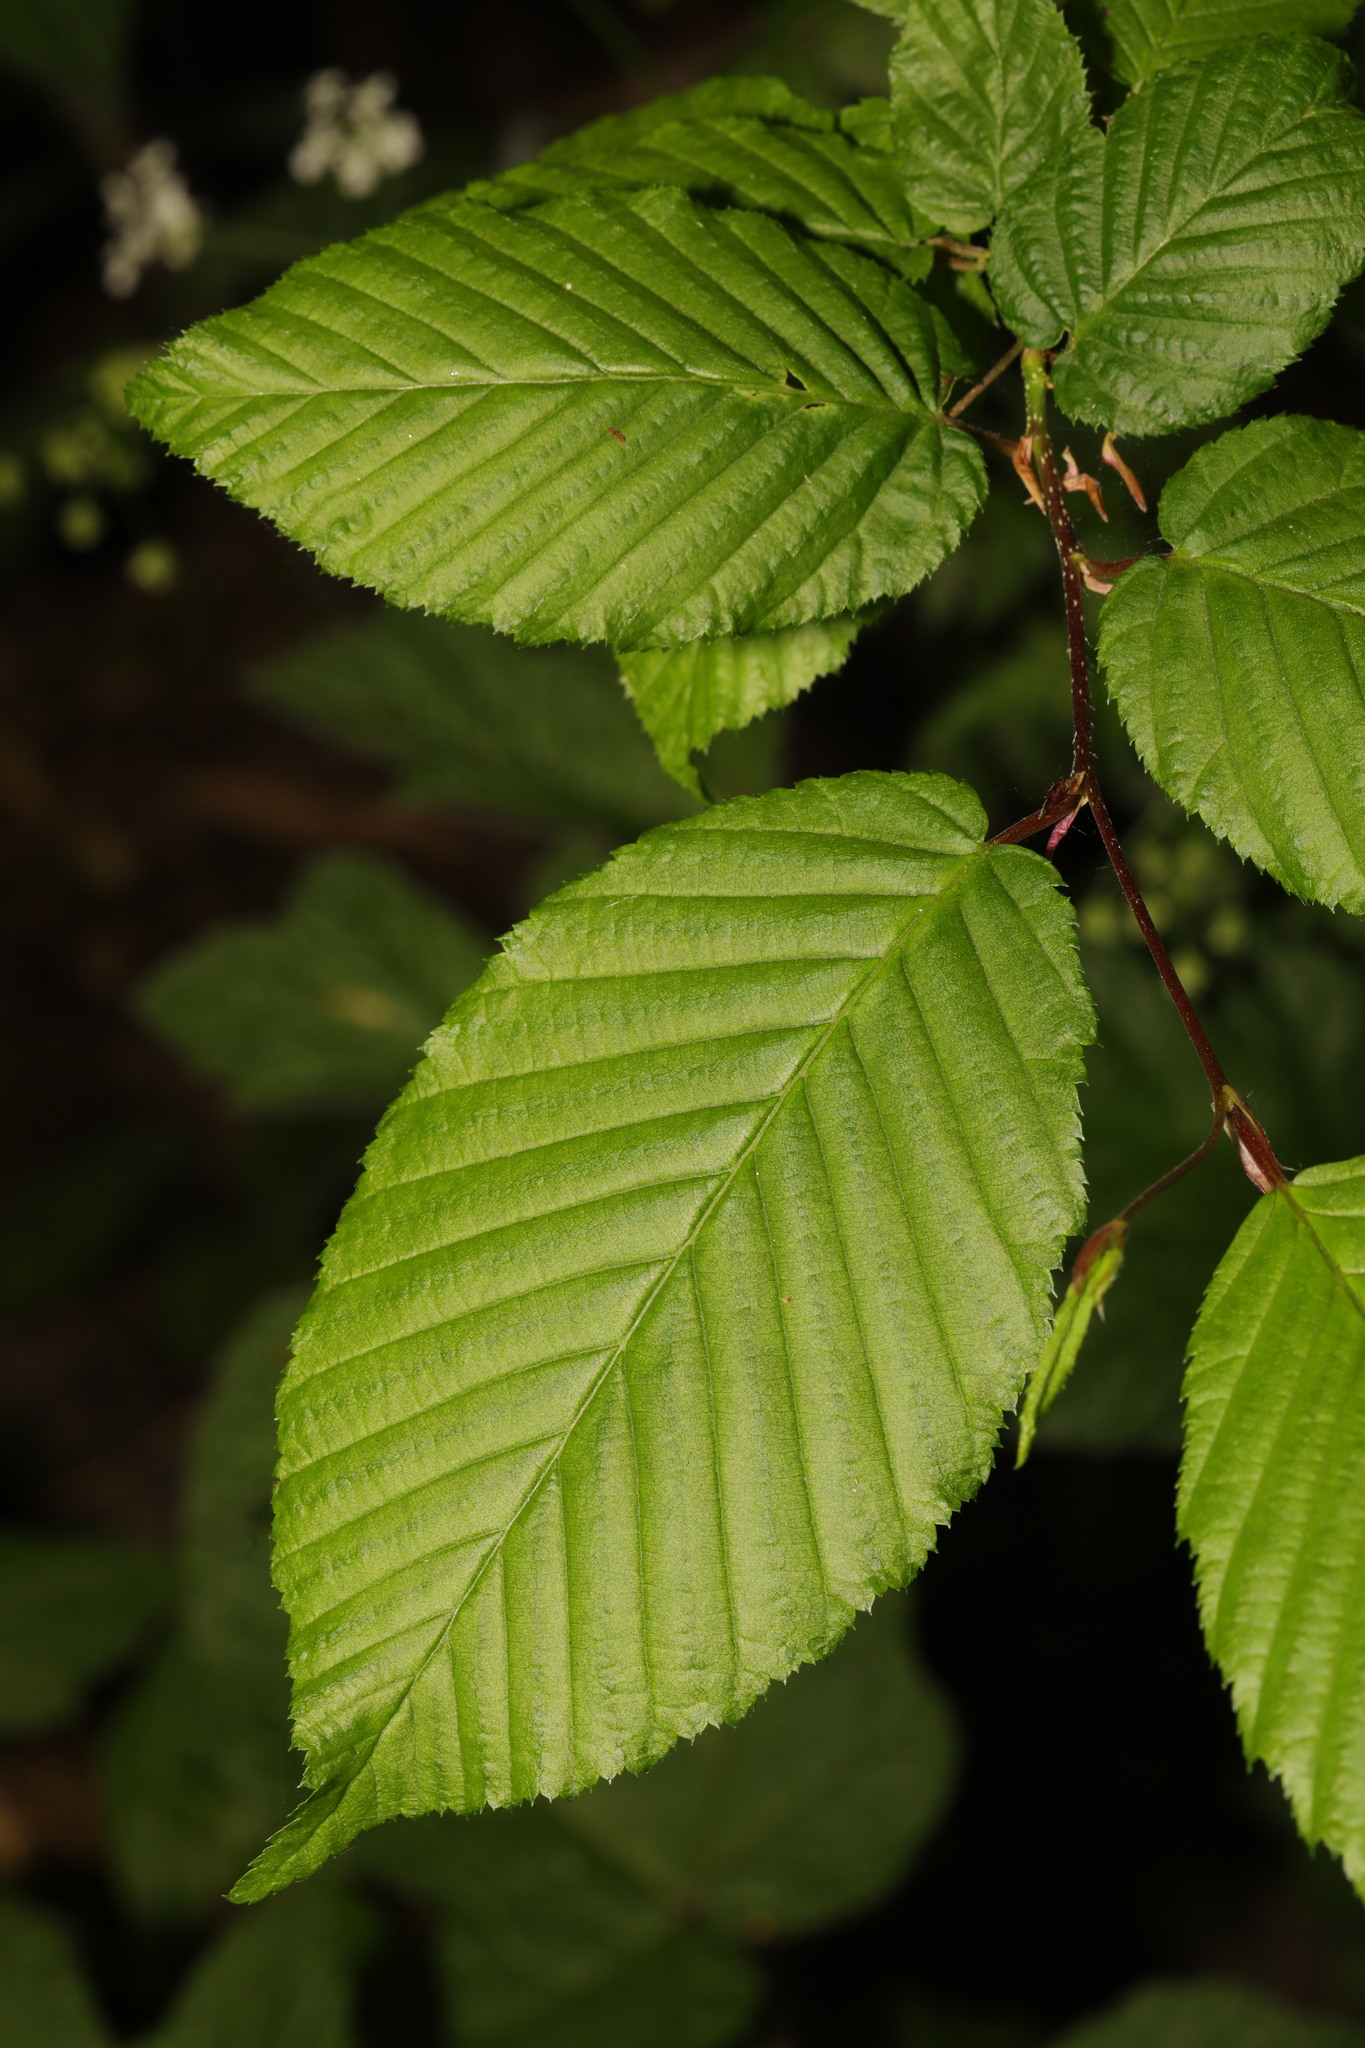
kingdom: Plantae
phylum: Tracheophyta
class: Magnoliopsida
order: Fagales
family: Betulaceae
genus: Carpinus
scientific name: Carpinus betulus
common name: Hornbeam
